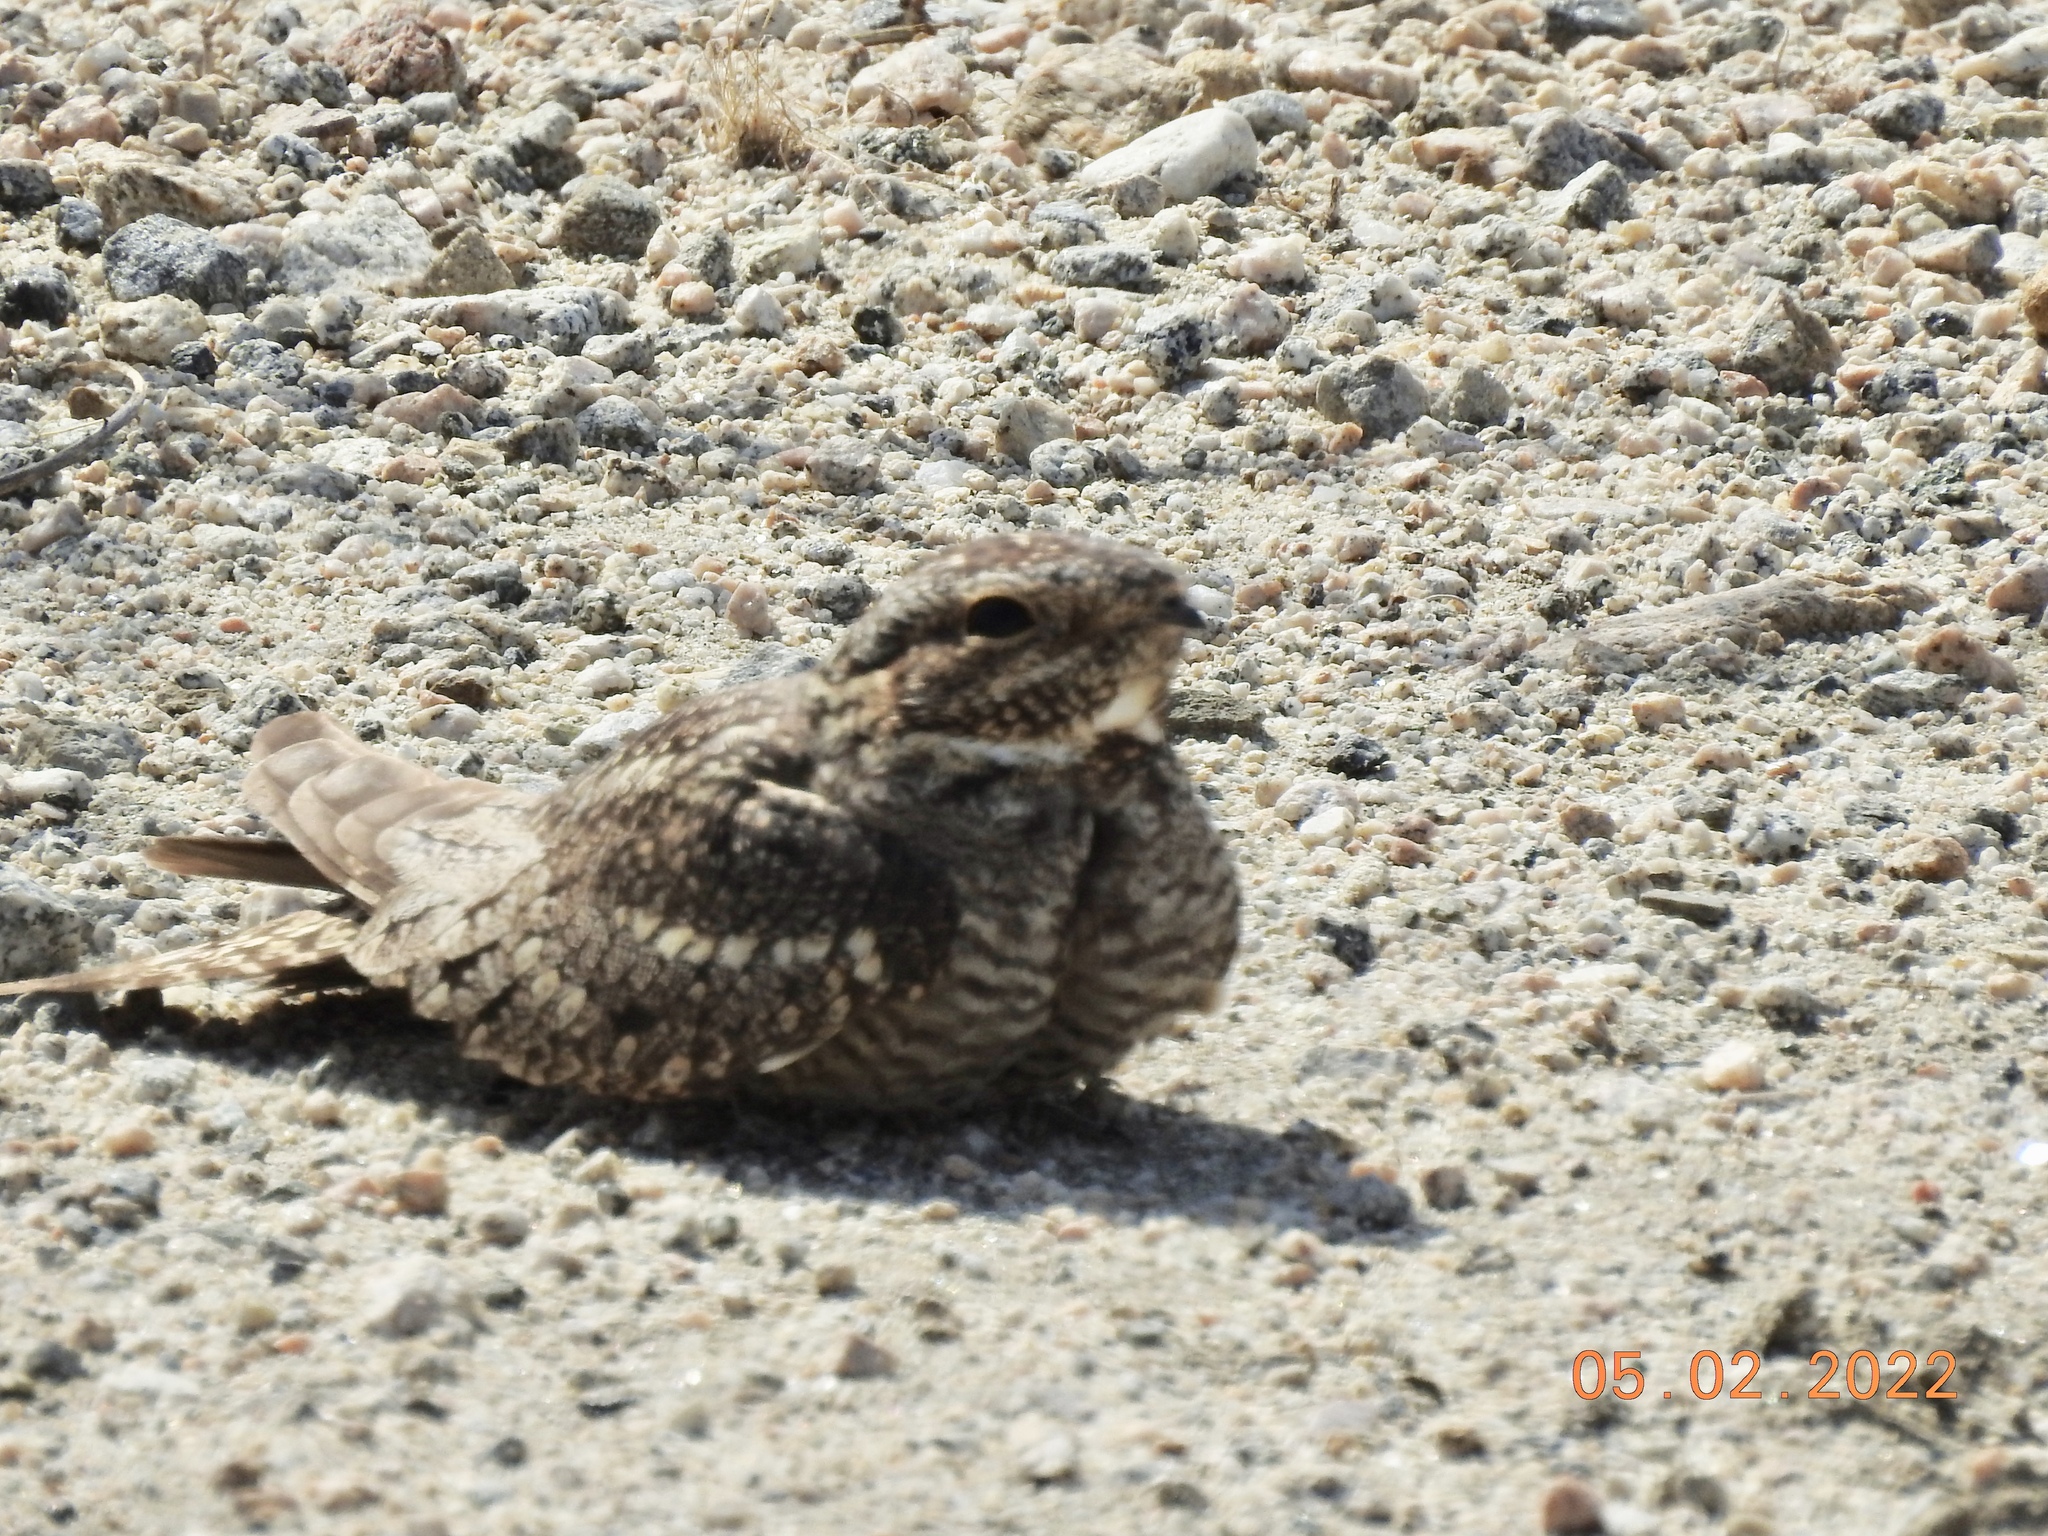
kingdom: Animalia
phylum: Chordata
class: Aves
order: Caprimulgiformes
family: Caprimulgidae
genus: Chordeiles
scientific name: Chordeiles acutipennis
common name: Lesser nighthawk
